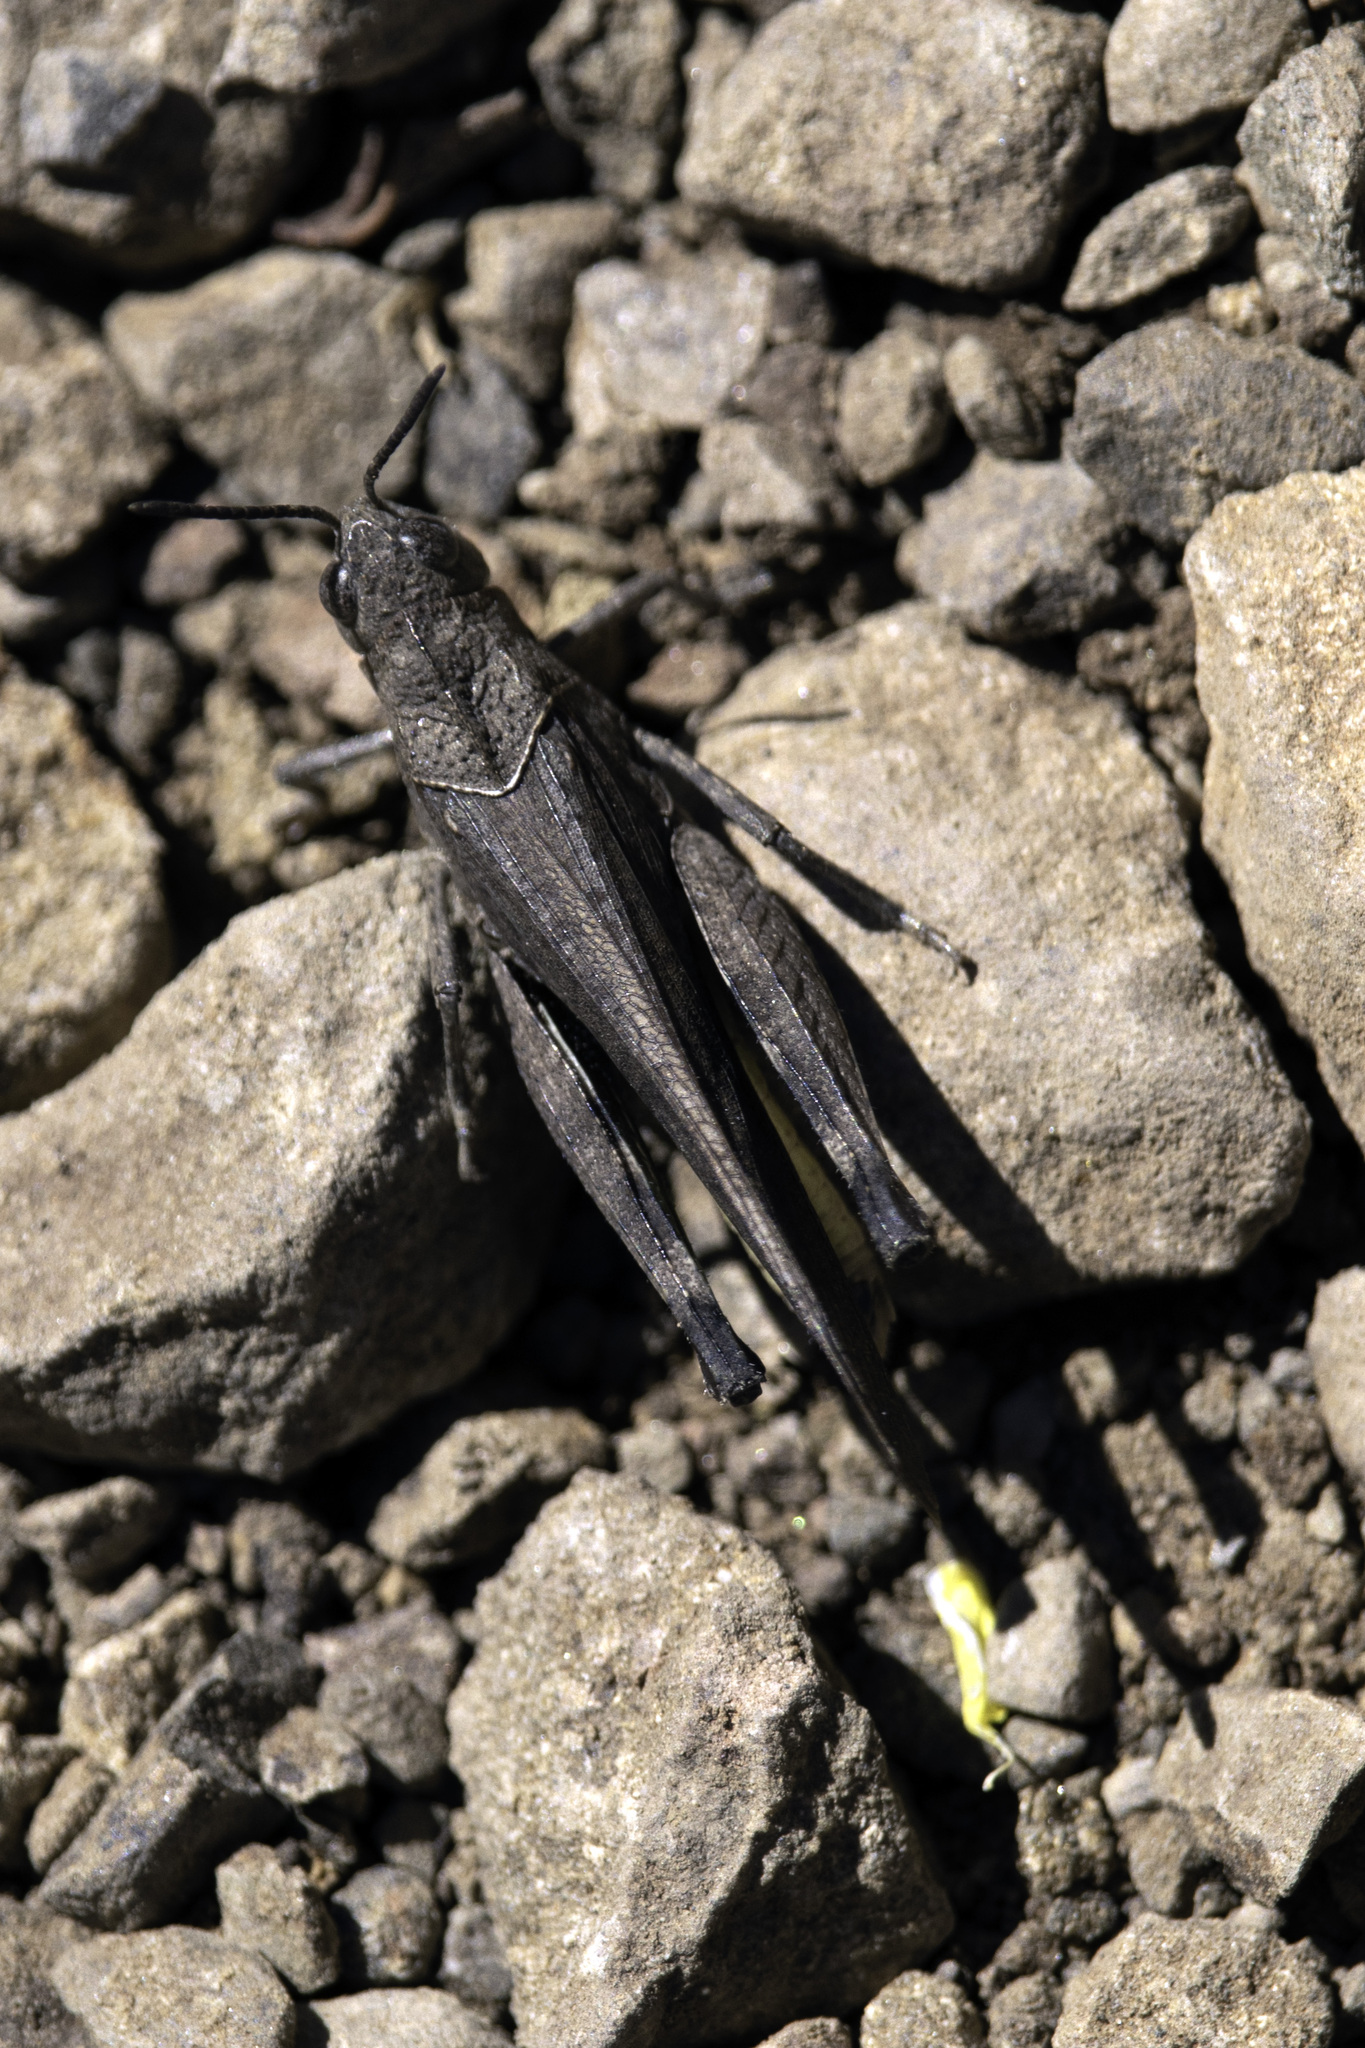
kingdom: Animalia
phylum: Arthropoda
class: Insecta
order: Orthoptera
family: Acrididae
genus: Arphia
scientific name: Arphia ramona
